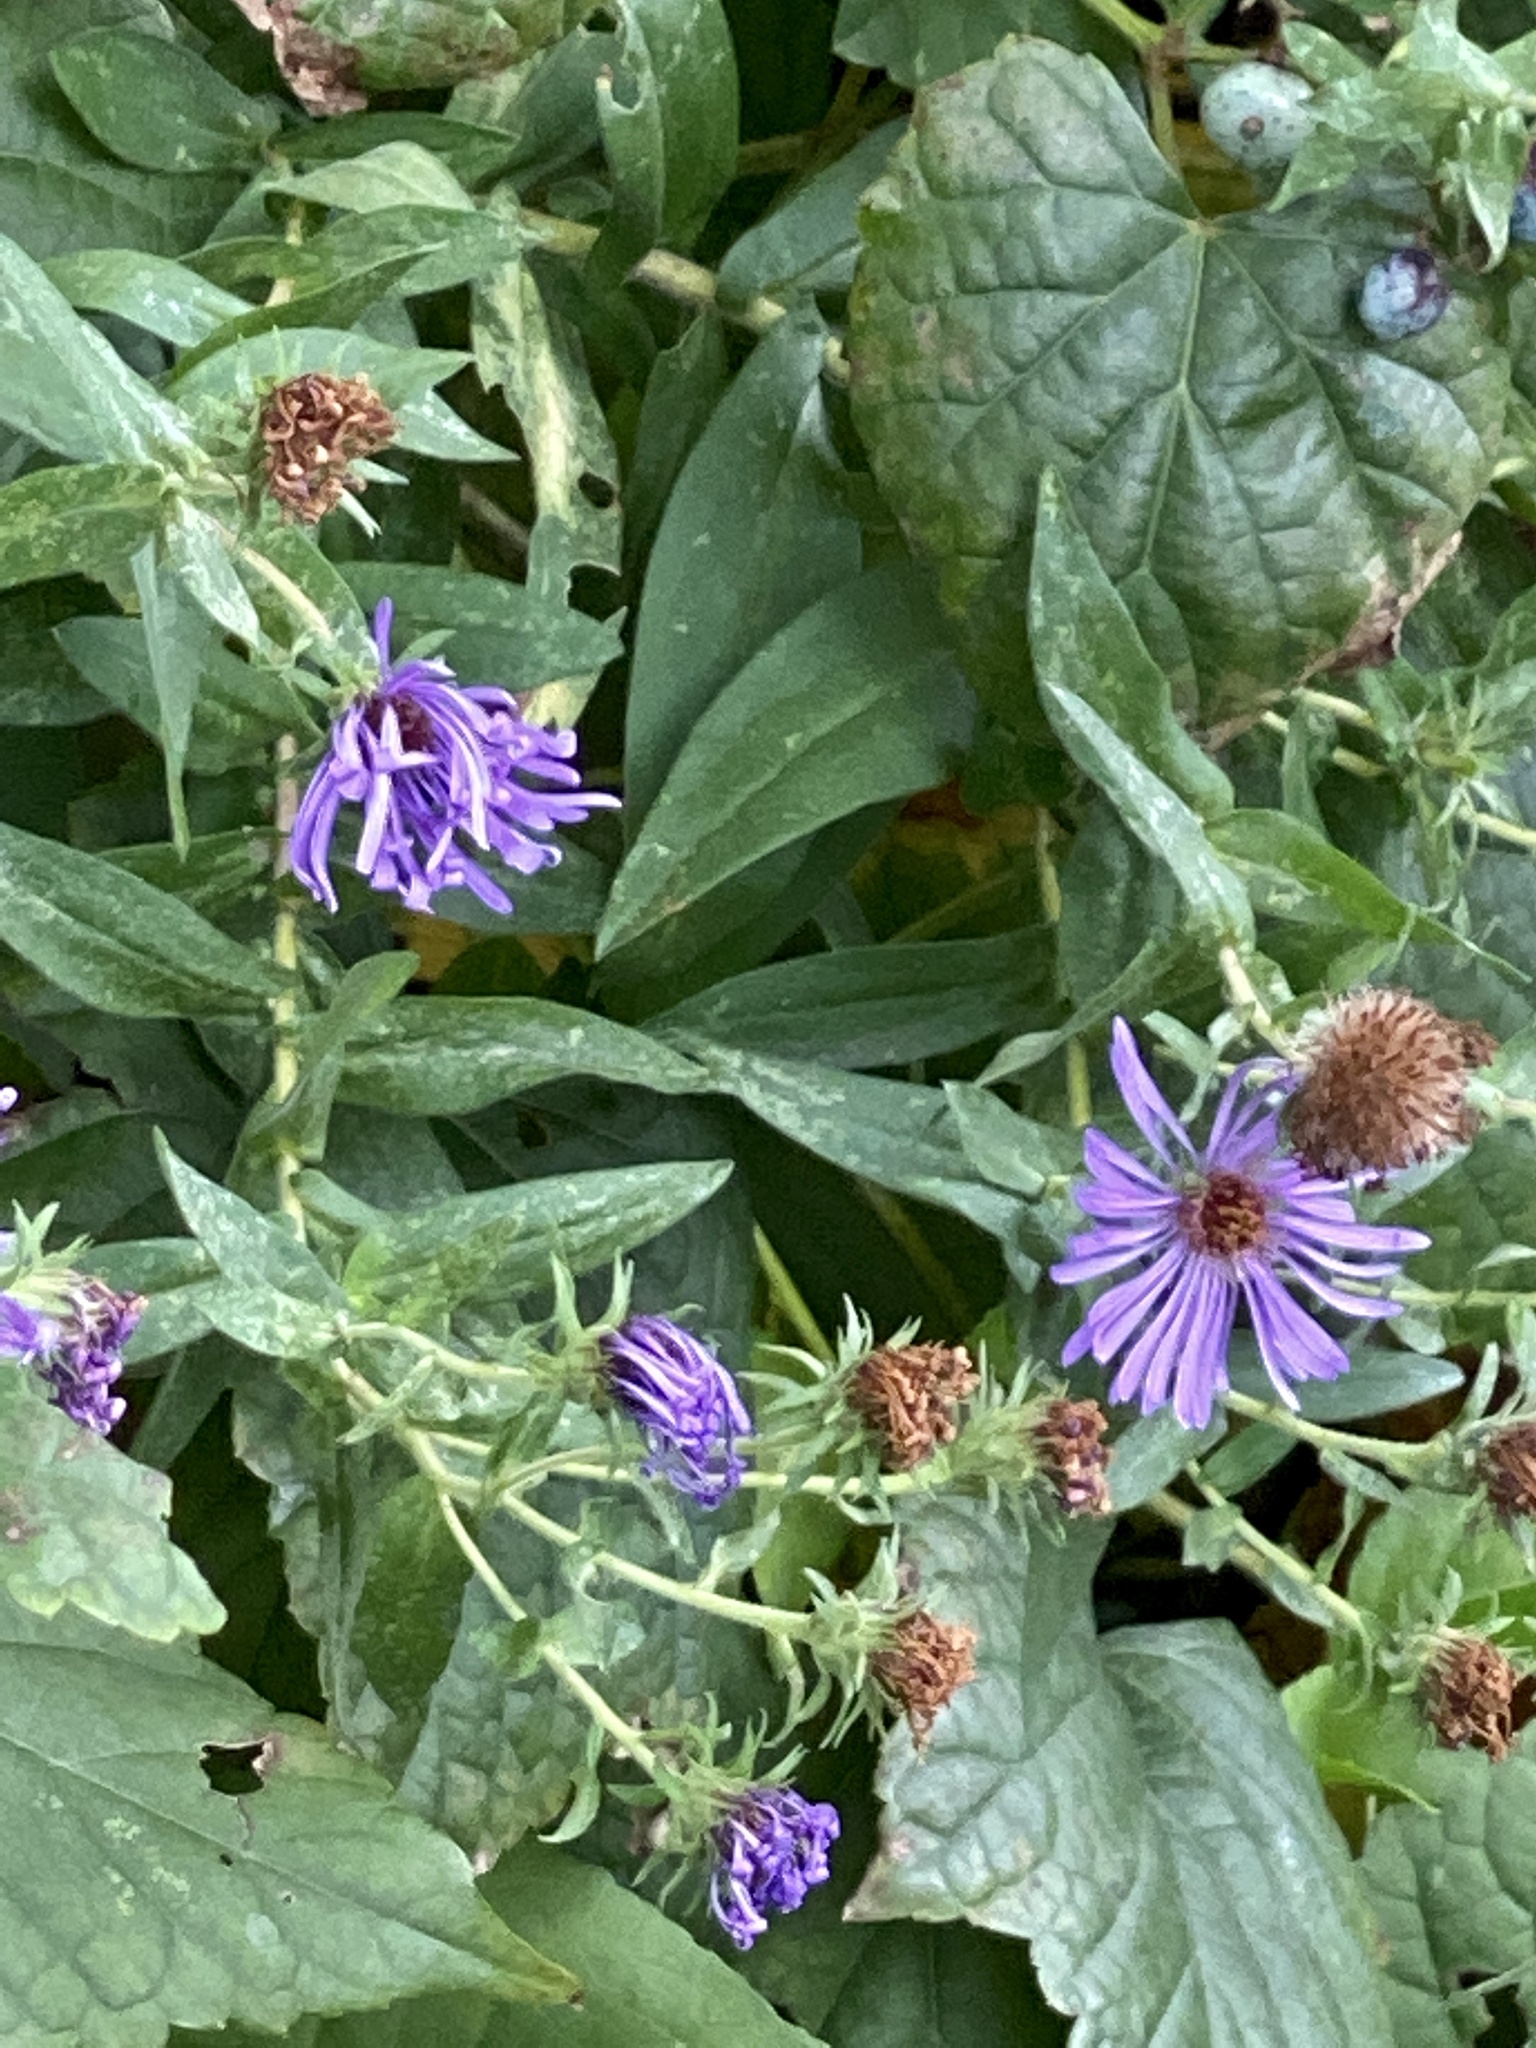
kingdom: Plantae
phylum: Tracheophyta
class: Magnoliopsida
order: Asterales
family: Asteraceae
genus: Symphyotrichum
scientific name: Symphyotrichum novae-angliae
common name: Michaelmas daisy
